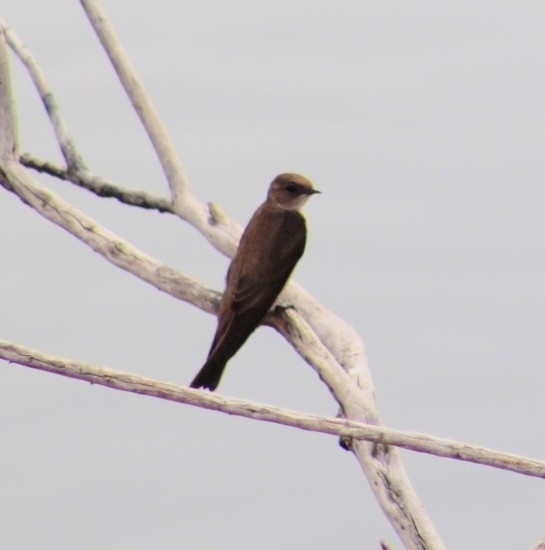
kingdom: Animalia
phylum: Chordata
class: Aves
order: Passeriformes
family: Hirundinidae
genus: Stelgidopteryx
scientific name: Stelgidopteryx serripennis
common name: Northern rough-winged swallow
